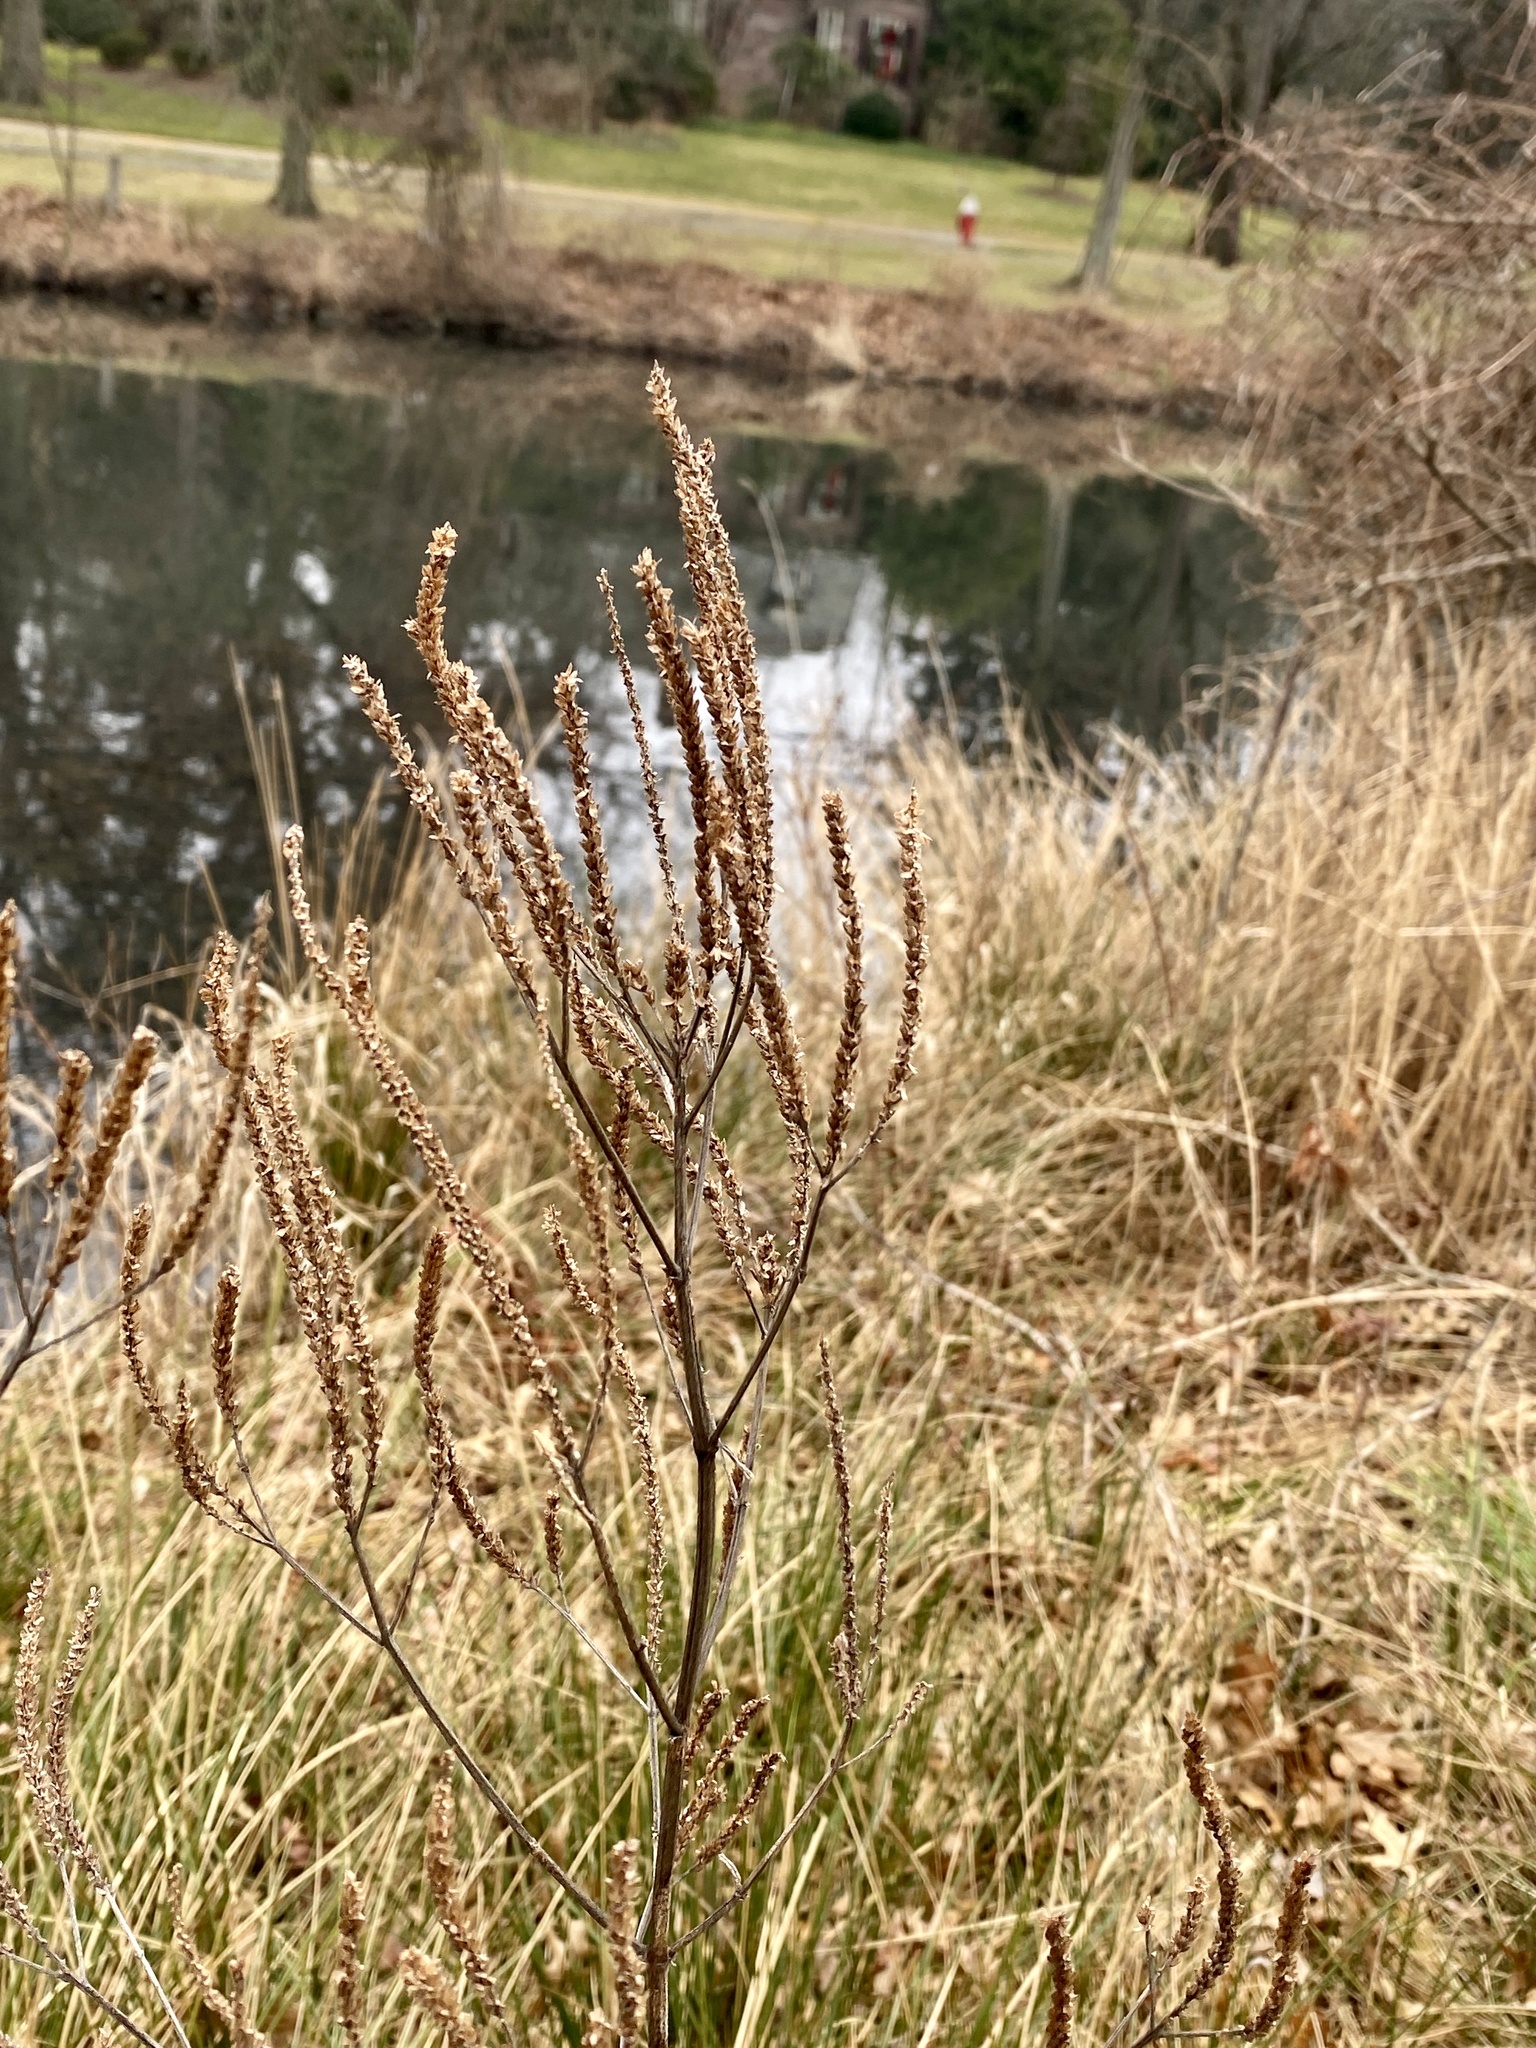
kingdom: Plantae
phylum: Tracheophyta
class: Magnoliopsida
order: Lamiales
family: Verbenaceae
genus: Verbena
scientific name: Verbena hastata
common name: American blue vervain
